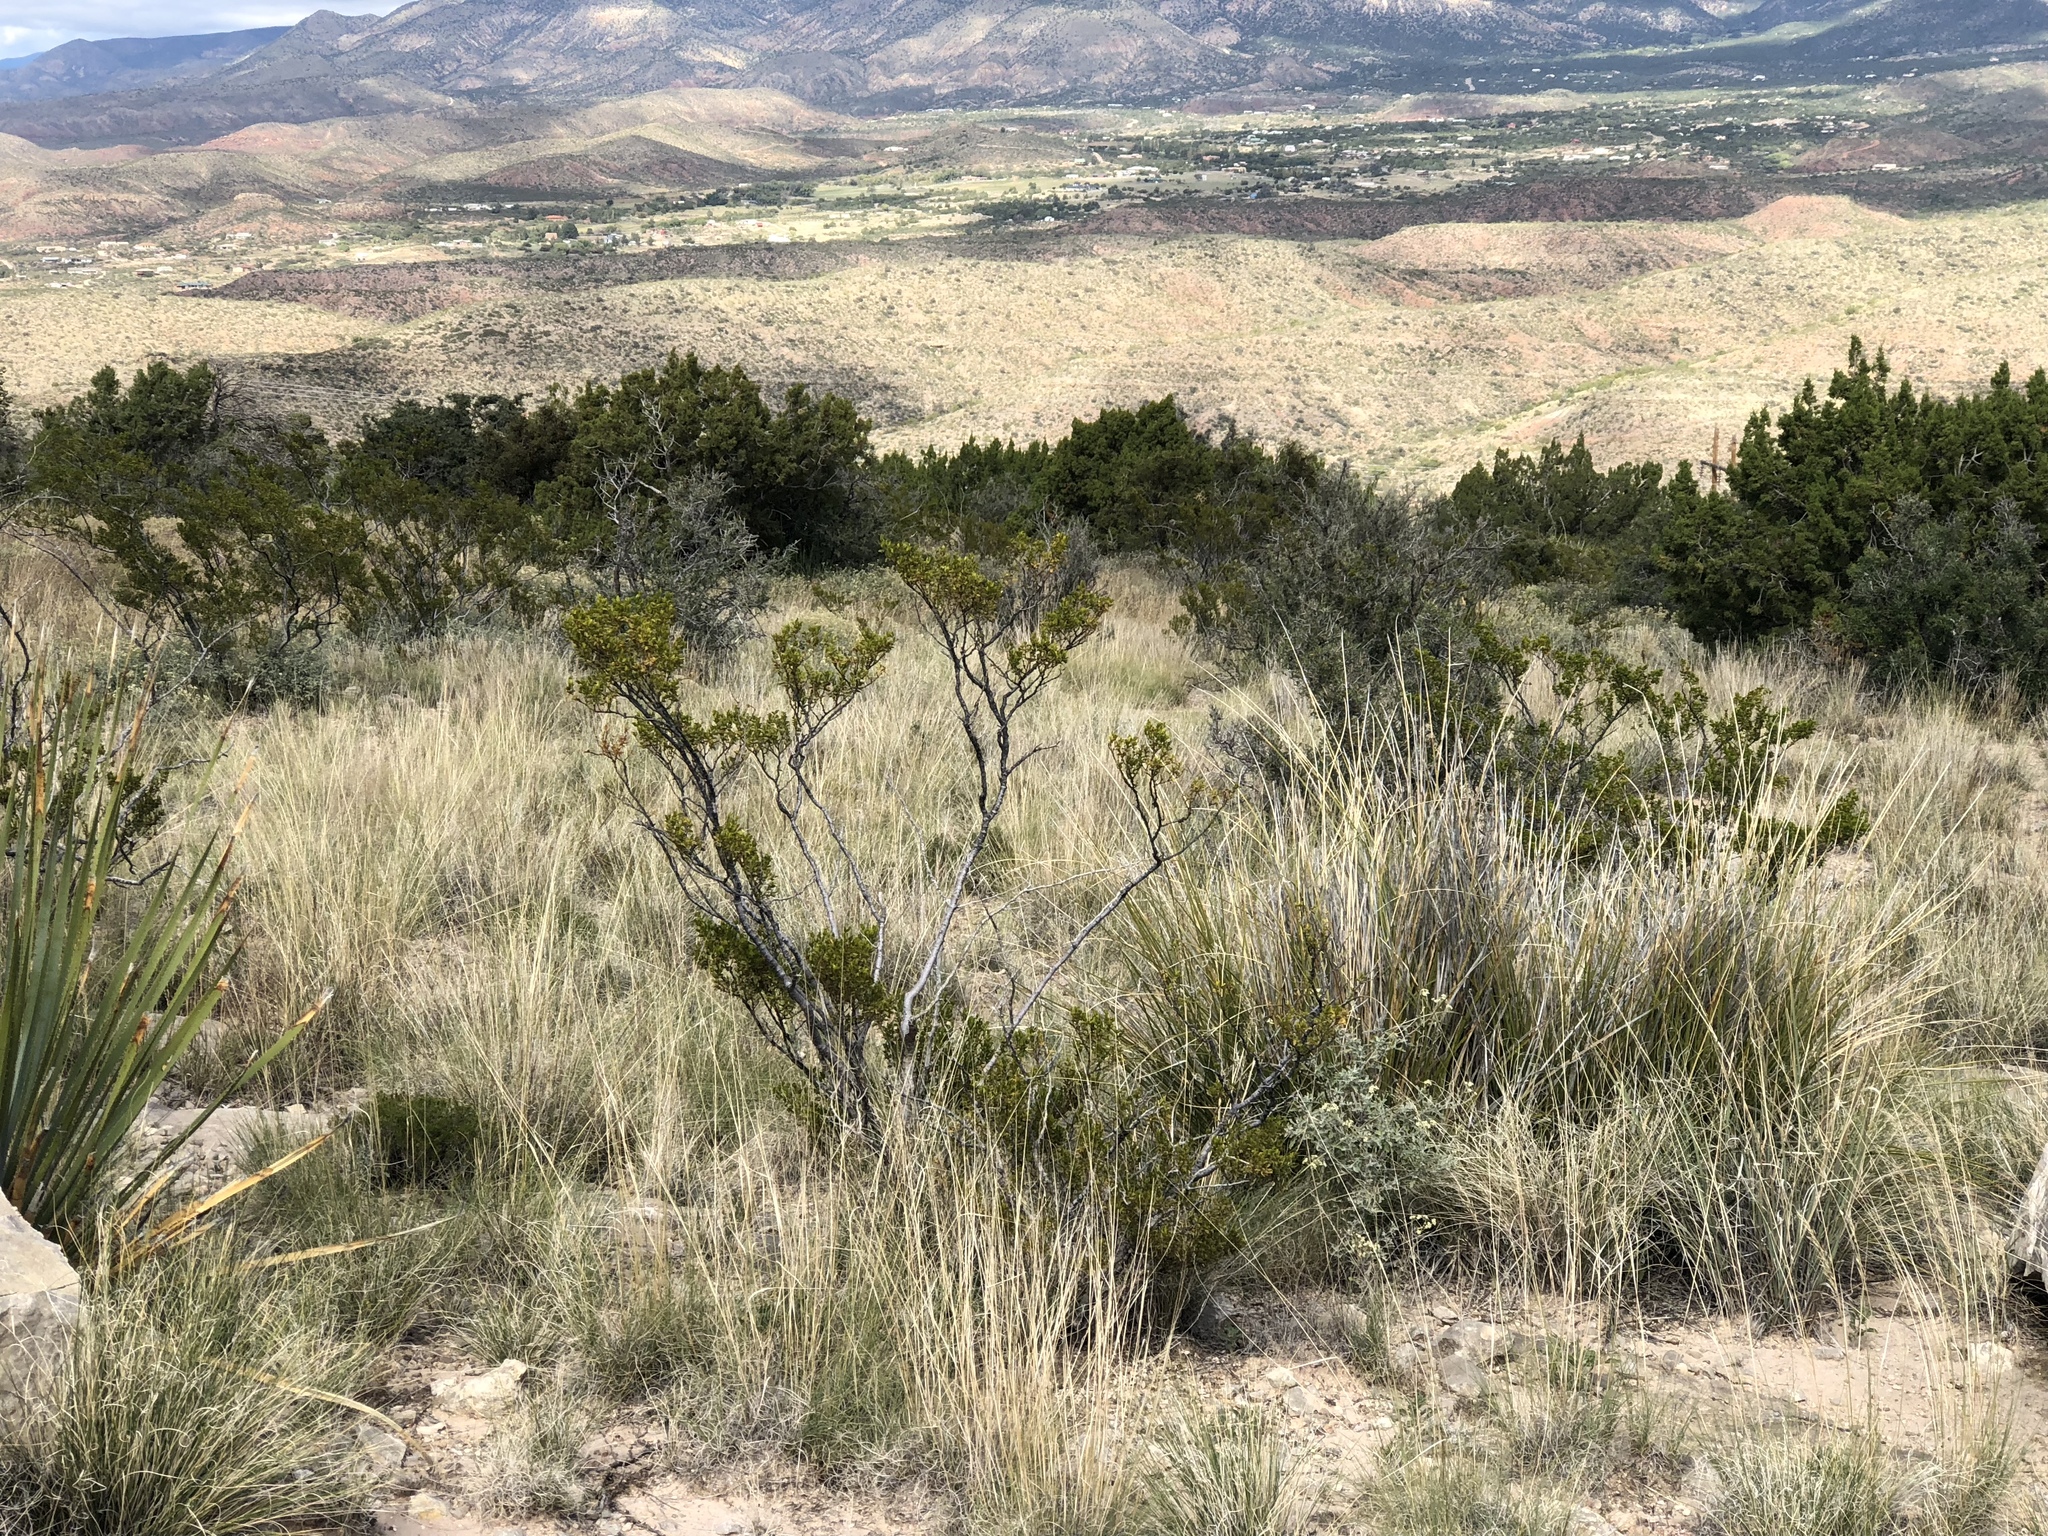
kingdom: Plantae
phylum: Tracheophyta
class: Magnoliopsida
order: Zygophyllales
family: Zygophyllaceae
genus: Larrea
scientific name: Larrea tridentata
